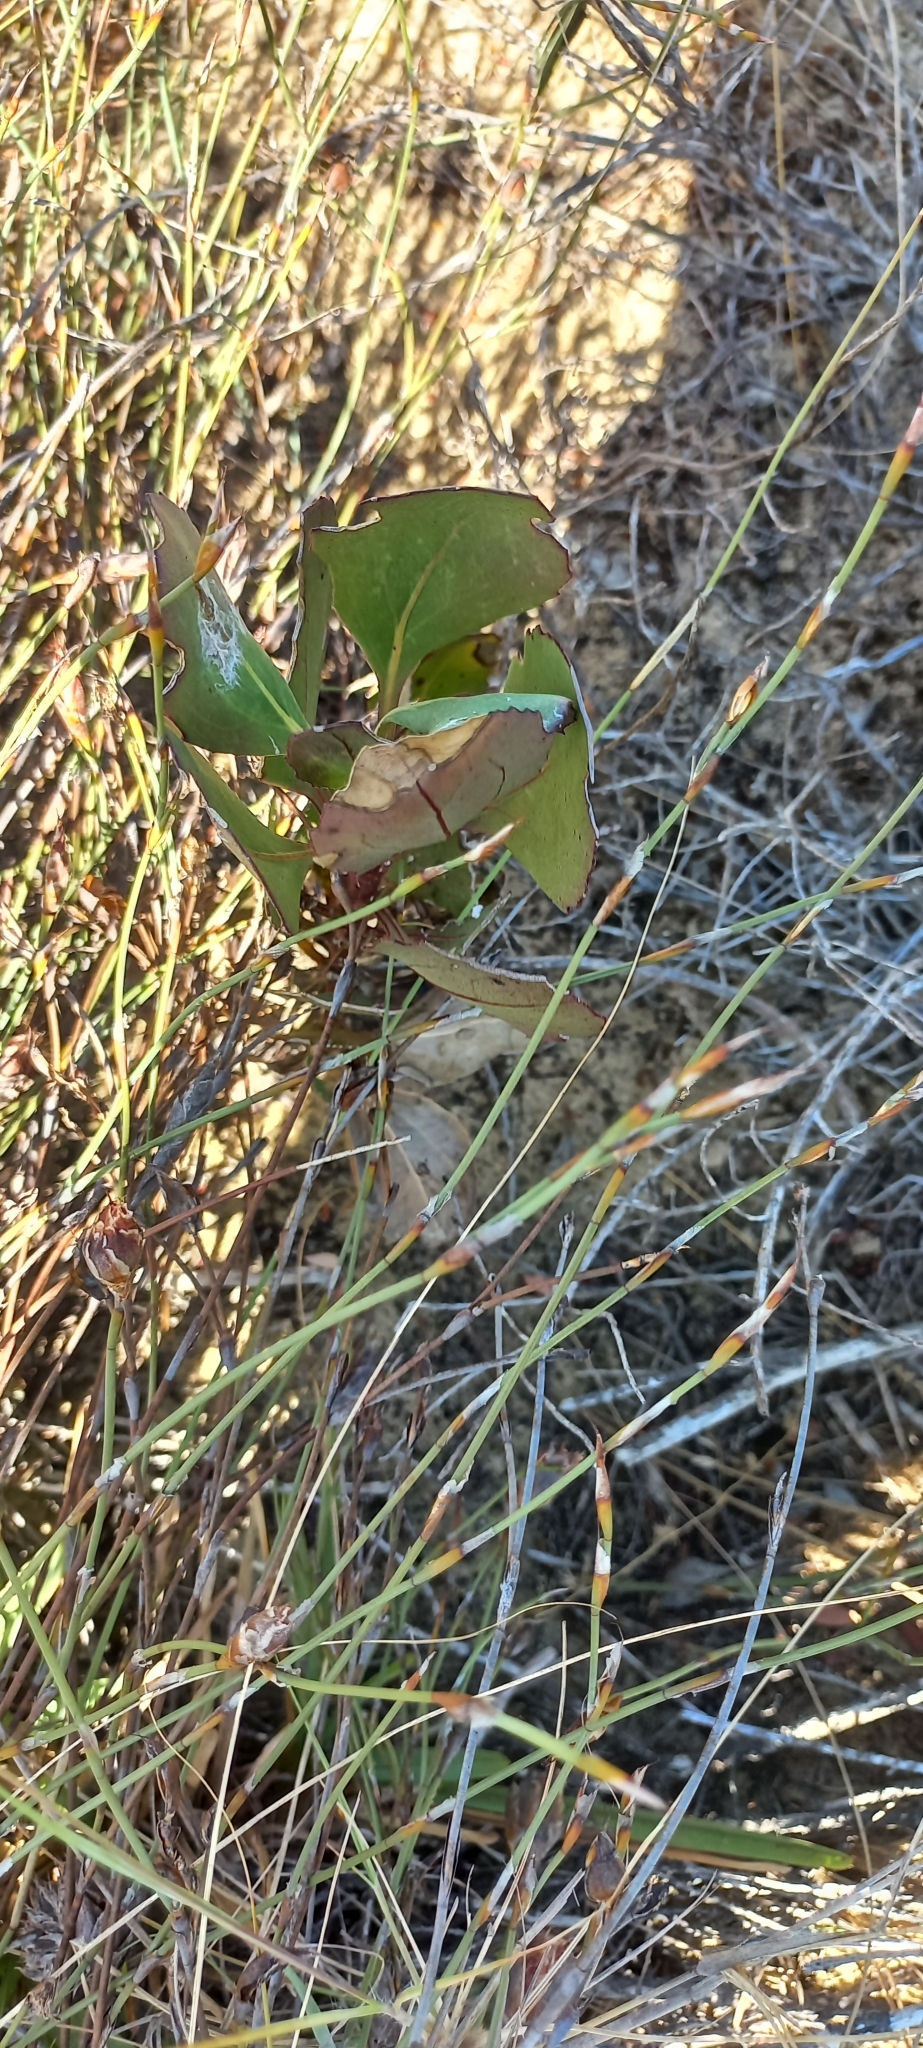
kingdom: Plantae
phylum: Tracheophyta
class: Magnoliopsida
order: Asterales
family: Asteraceae
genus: Osteospermum
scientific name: Osteospermum moniliferum
